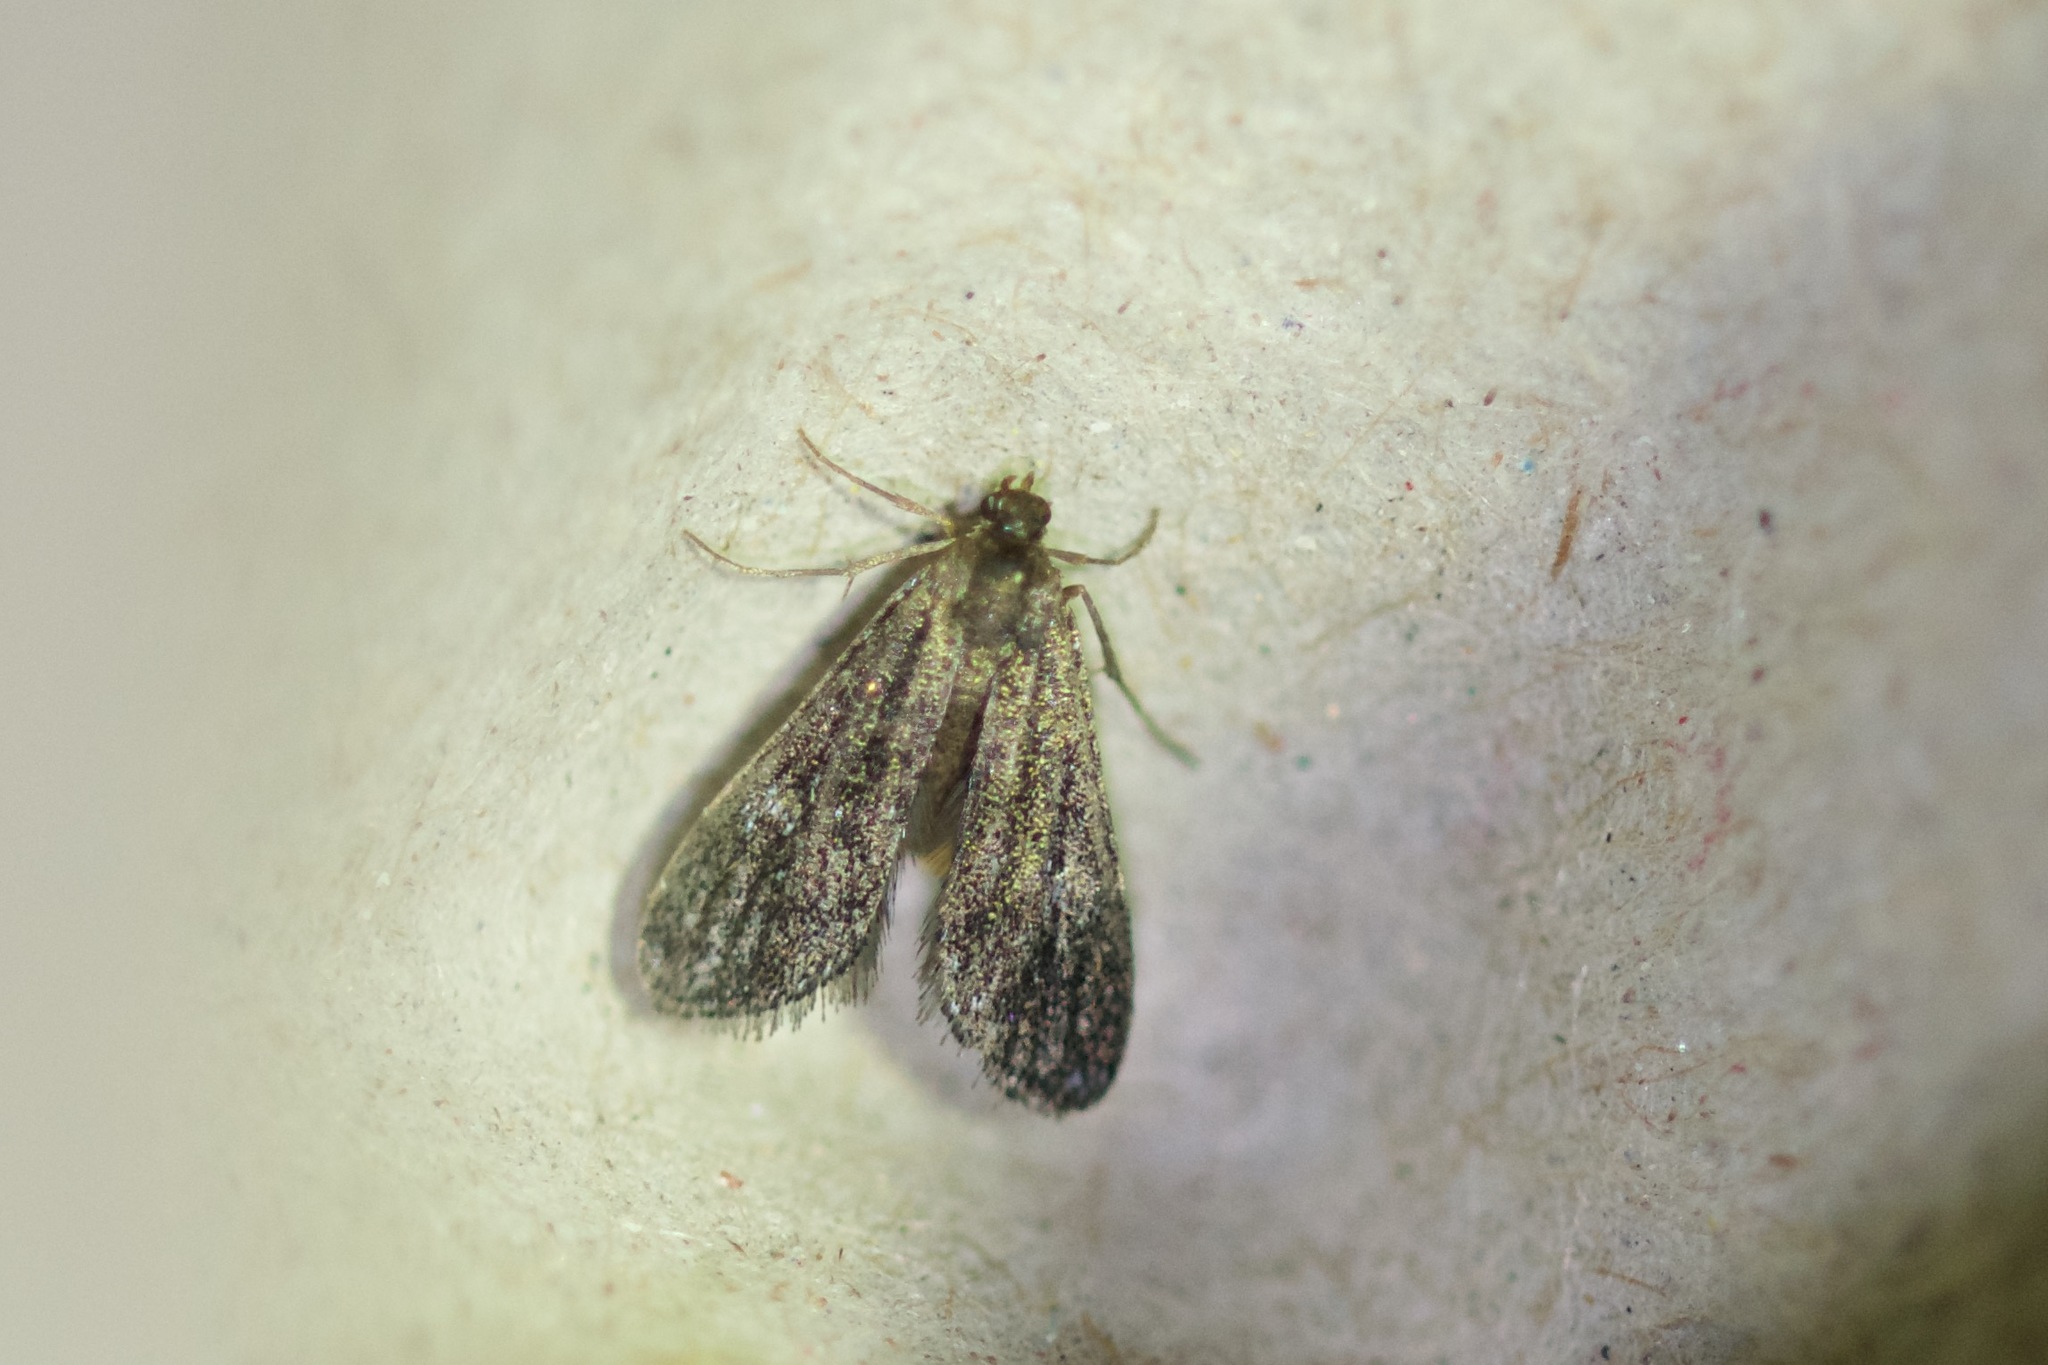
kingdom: Animalia
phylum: Arthropoda
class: Insecta
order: Lepidoptera
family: Crambidae
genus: Elophila
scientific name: Elophila tinealis
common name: Black duckweed moth
